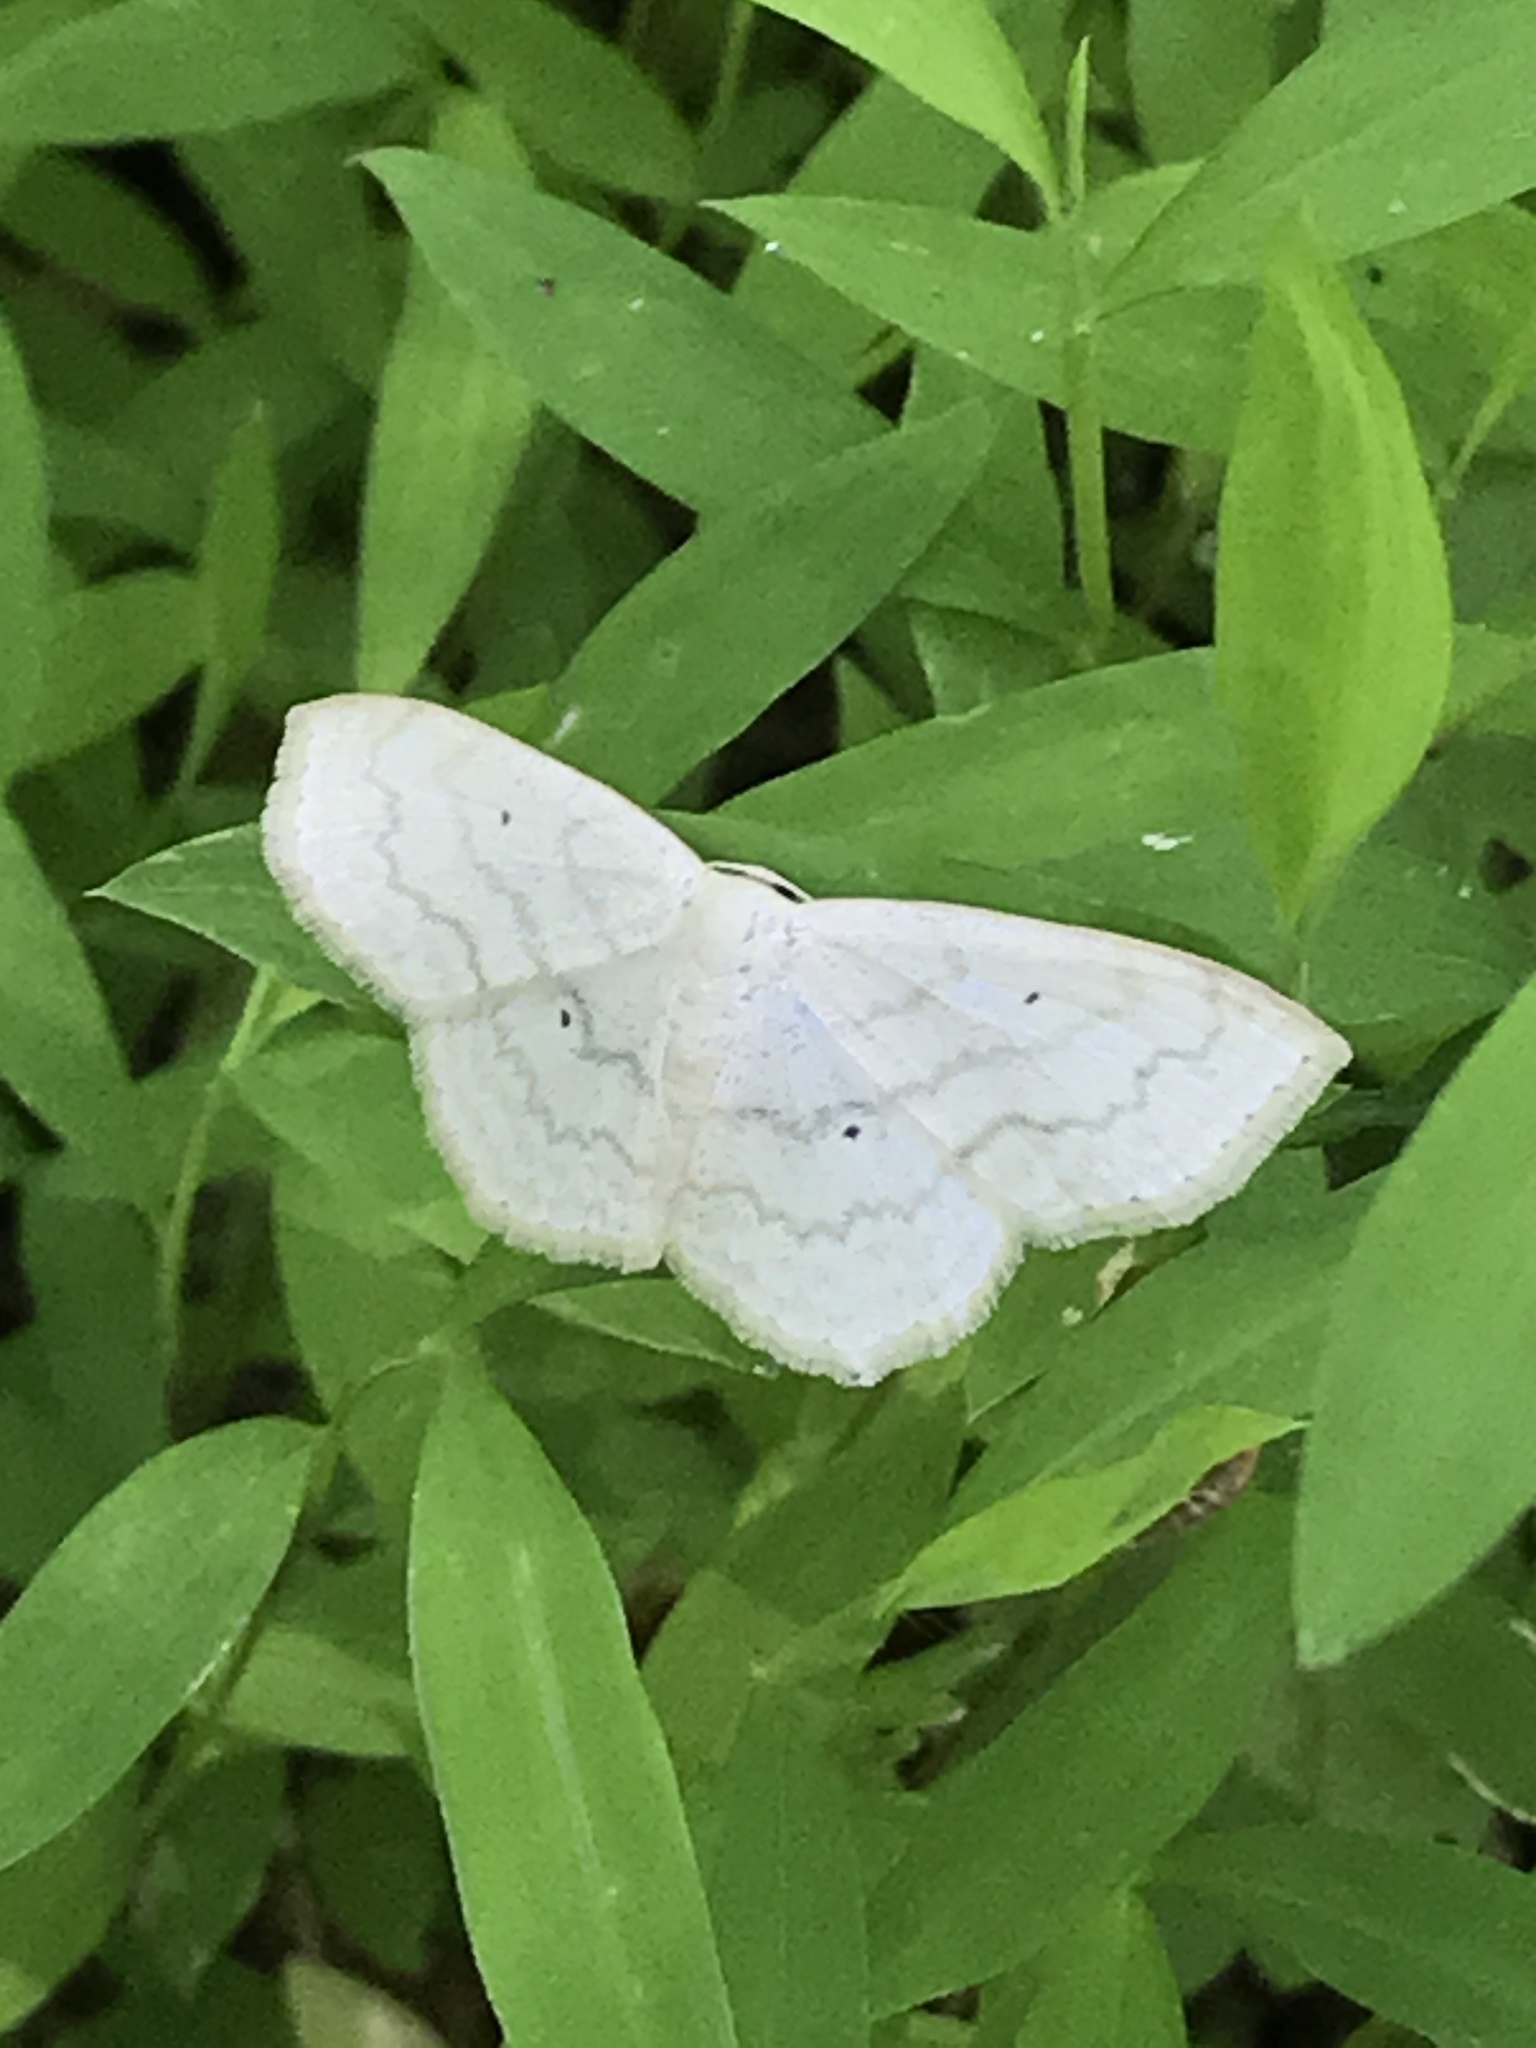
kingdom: Animalia
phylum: Arthropoda
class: Insecta
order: Lepidoptera
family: Geometridae
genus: Scopula
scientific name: Scopula limboundata
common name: Large lace border
